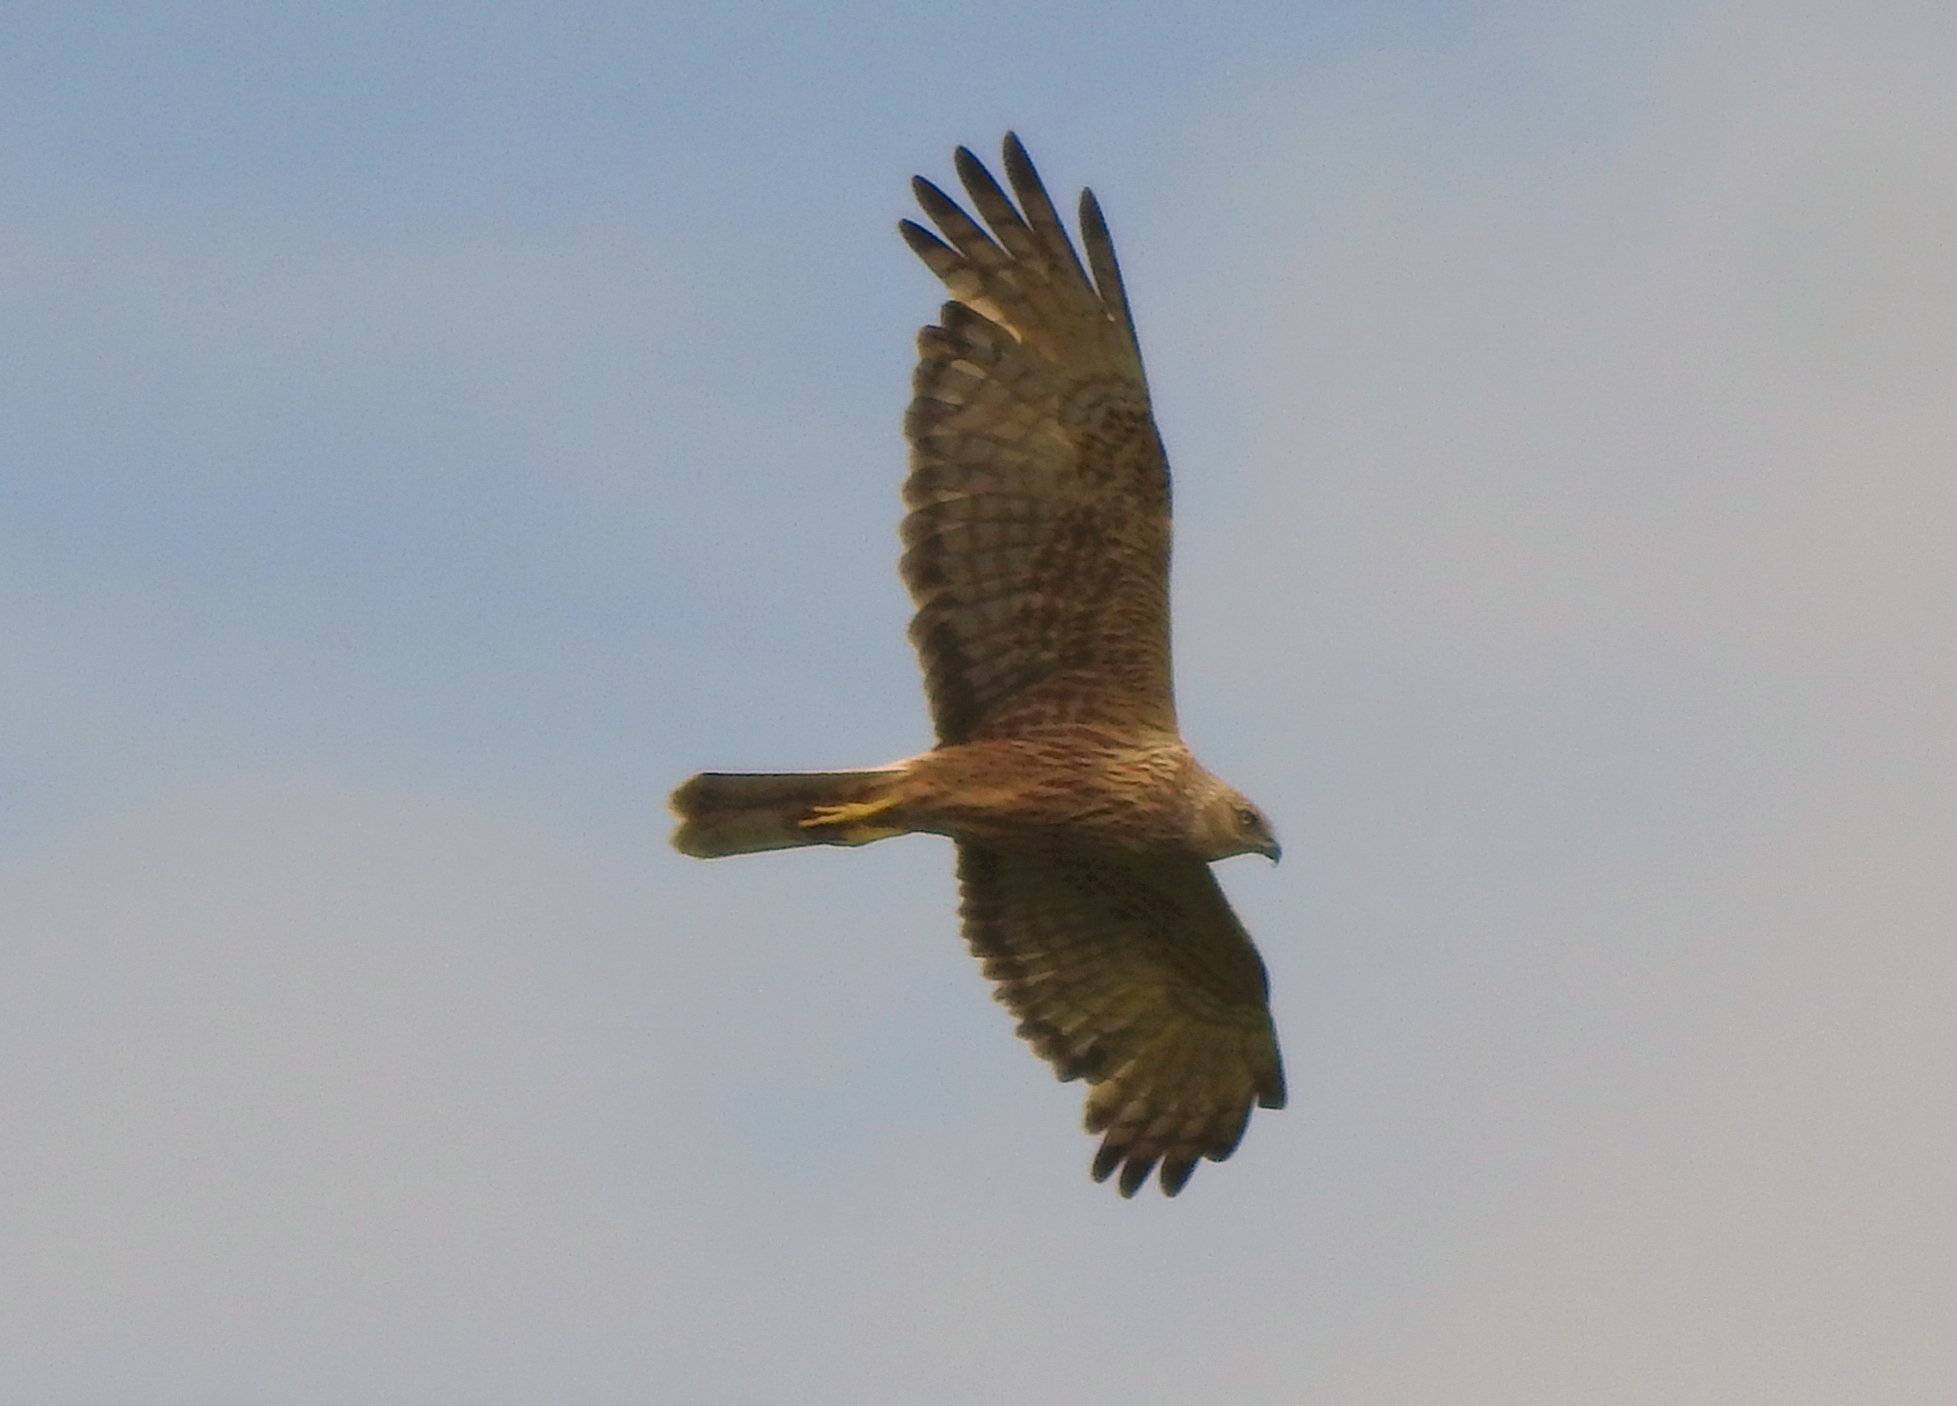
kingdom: Animalia
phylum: Chordata
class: Aves
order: Accipitriformes
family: Accipitridae
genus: Circus
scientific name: Circus spilonotus
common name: Eastern marsh-harrier
